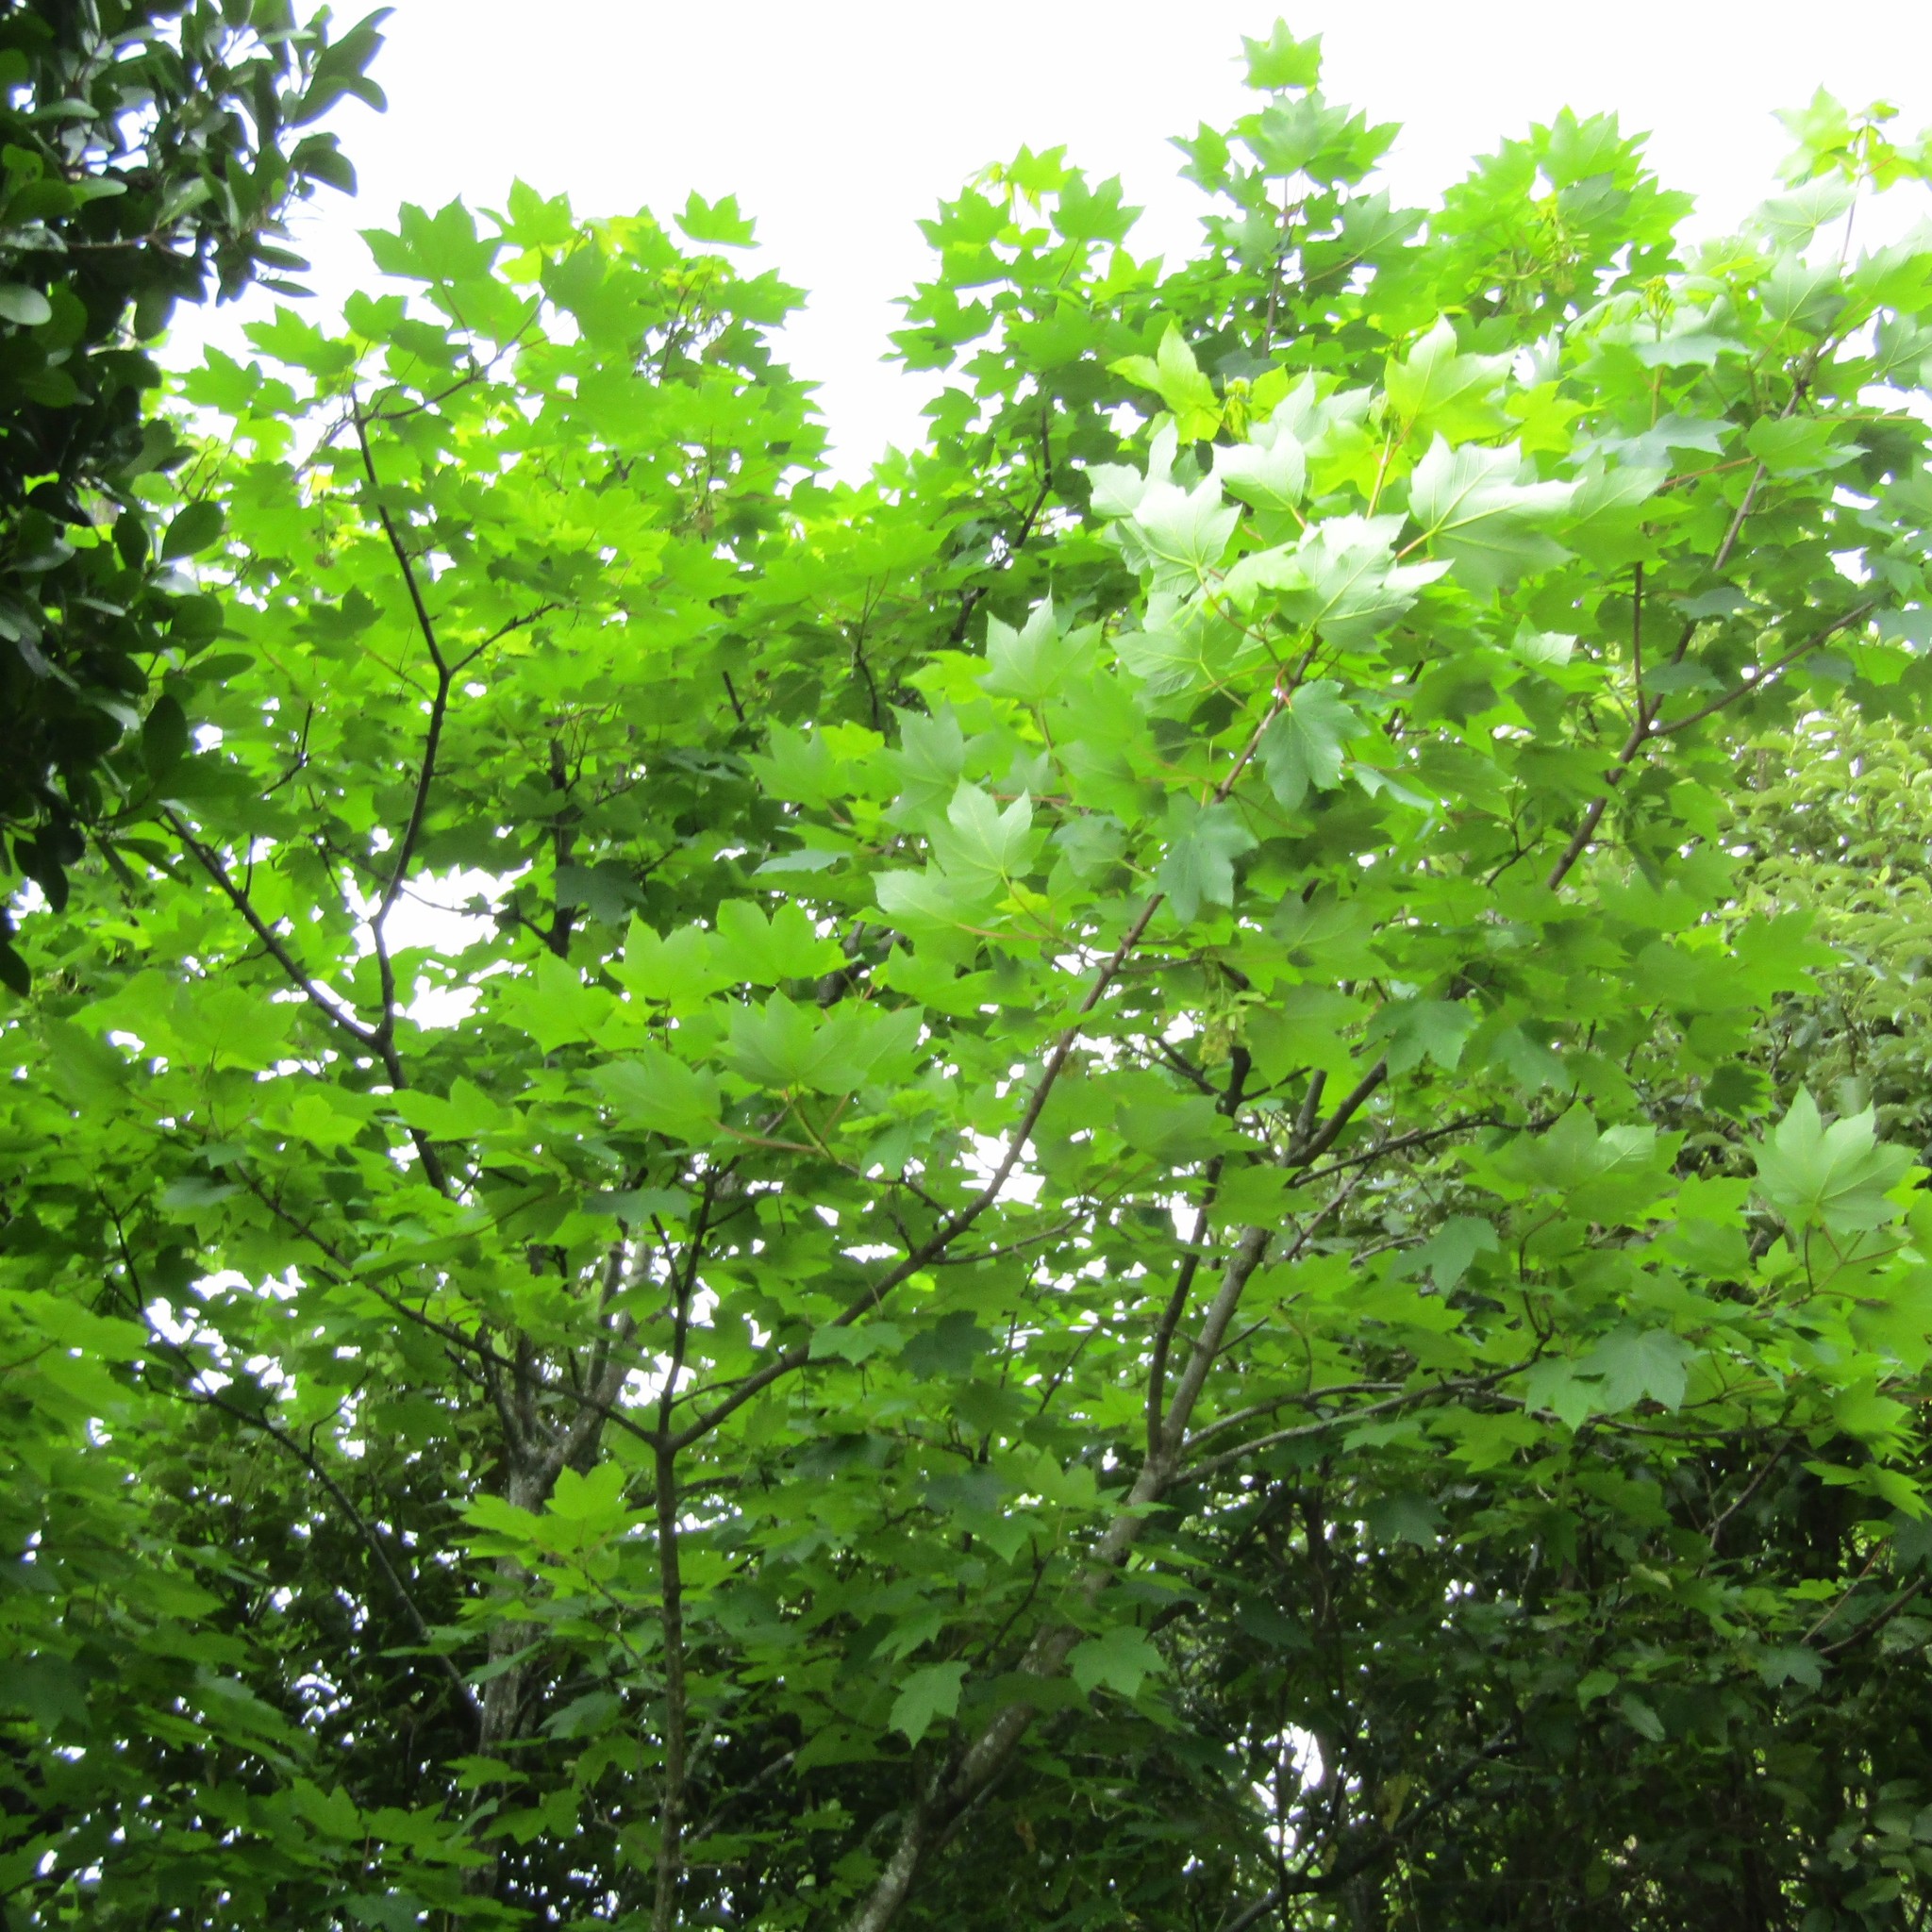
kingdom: Plantae
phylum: Tracheophyta
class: Magnoliopsida
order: Sapindales
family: Sapindaceae
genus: Acer
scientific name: Acer pseudoplatanus
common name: Sycamore
